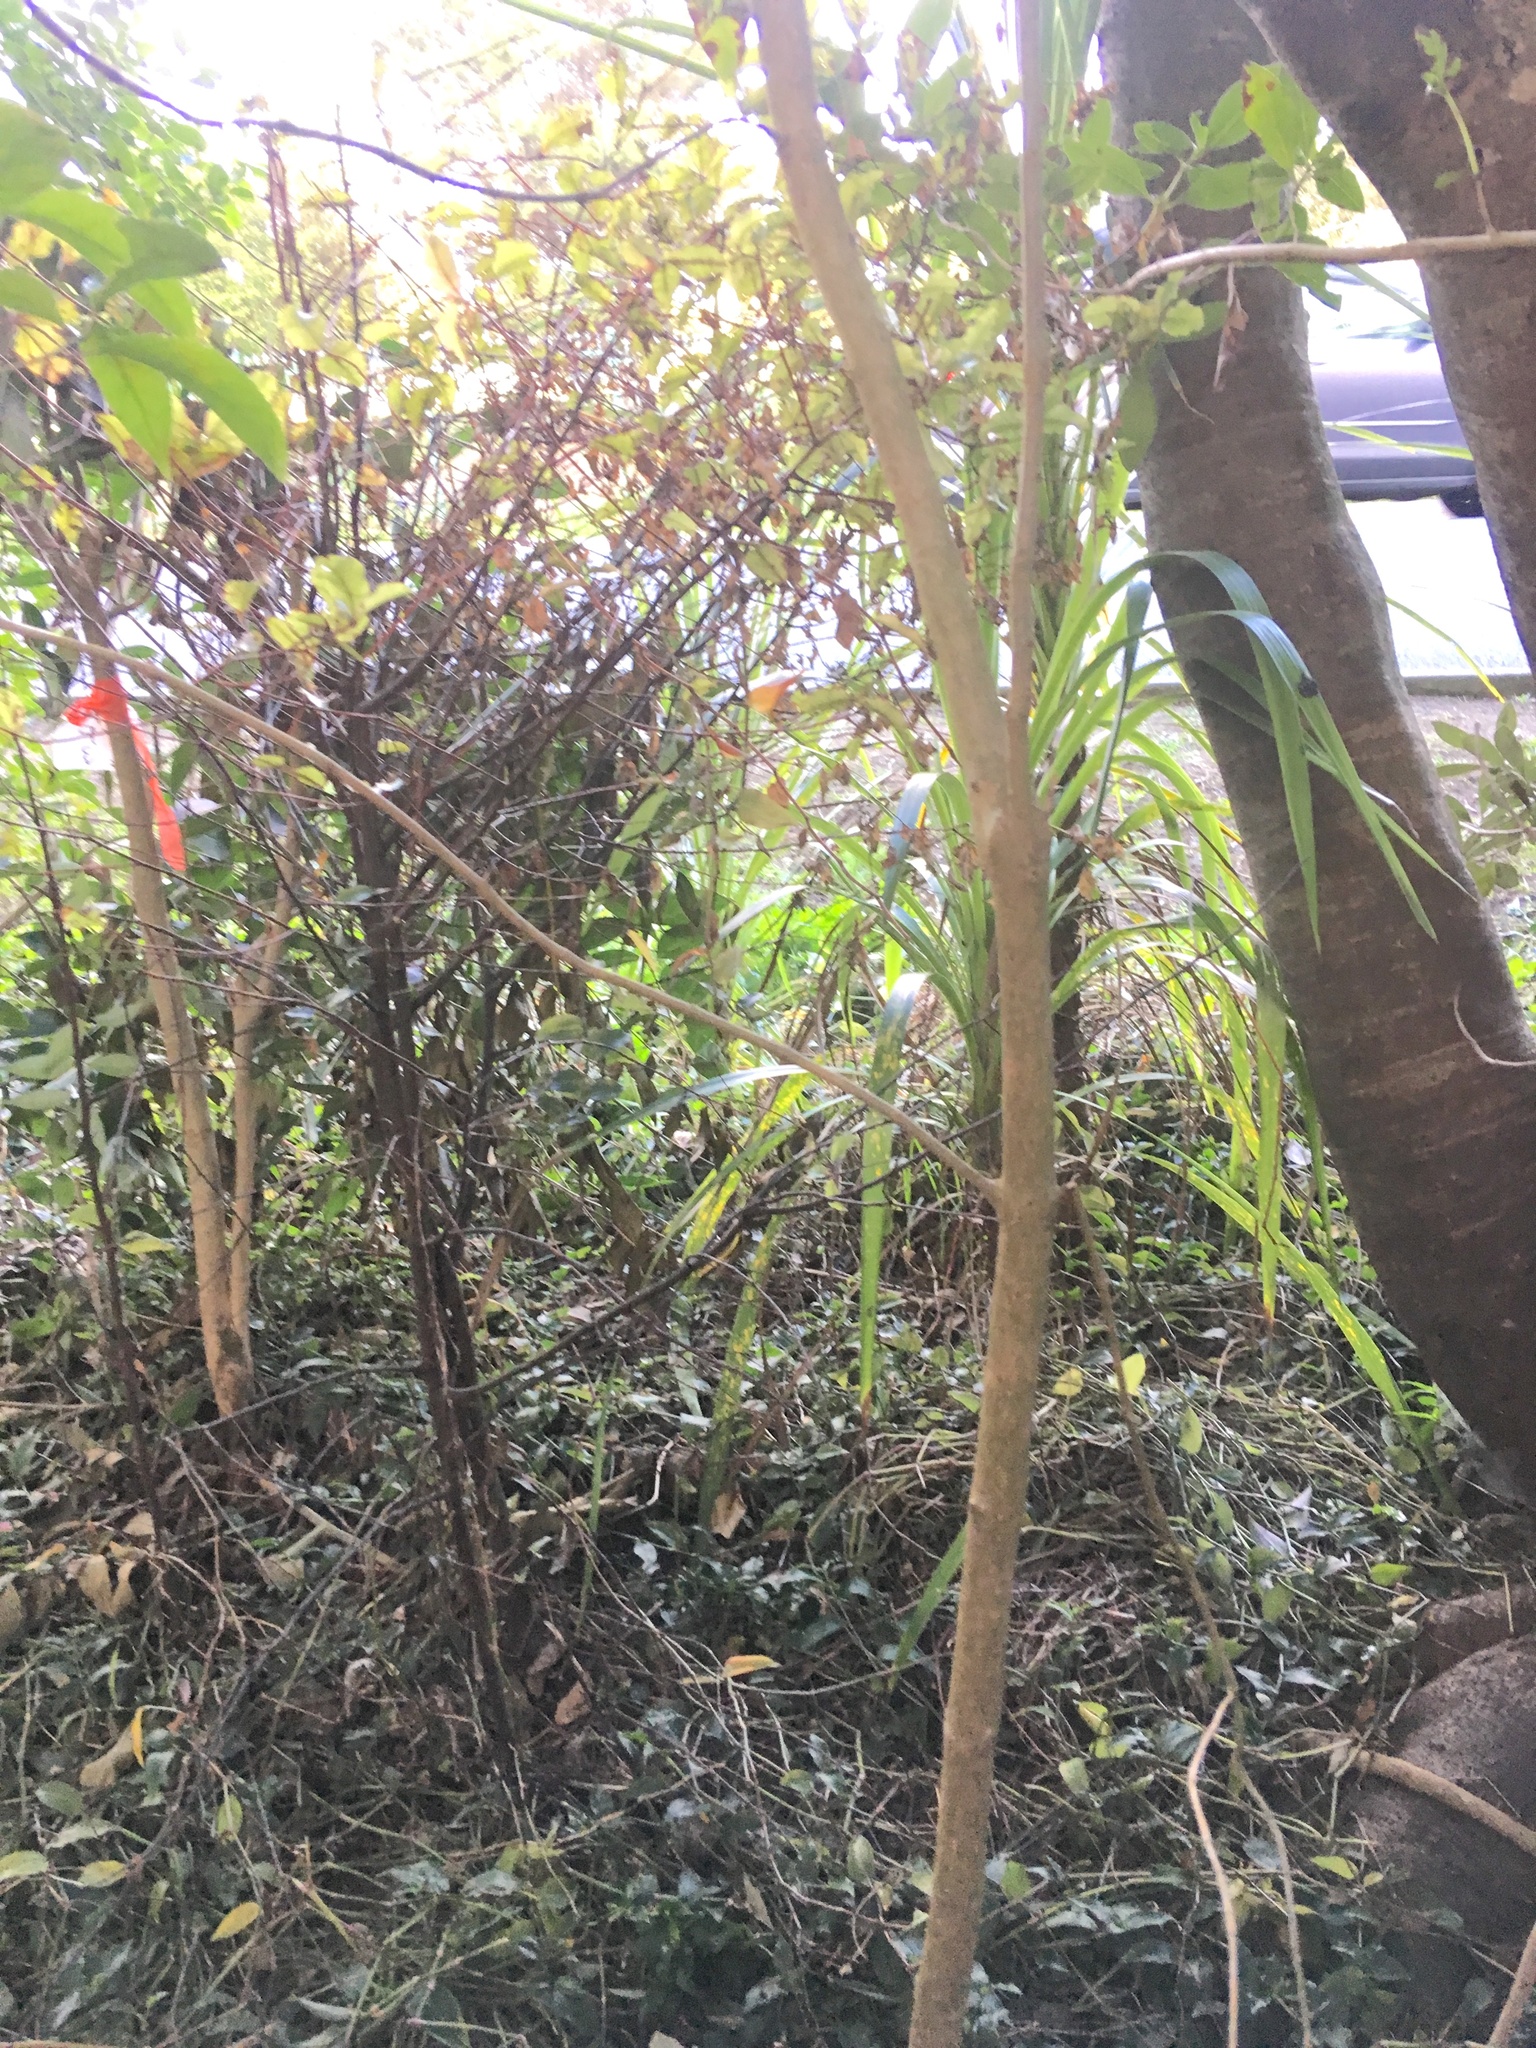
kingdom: Plantae
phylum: Tracheophyta
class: Liliopsida
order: Commelinales
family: Commelinaceae
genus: Tradescantia
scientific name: Tradescantia fluminensis
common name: Wandering-jew
